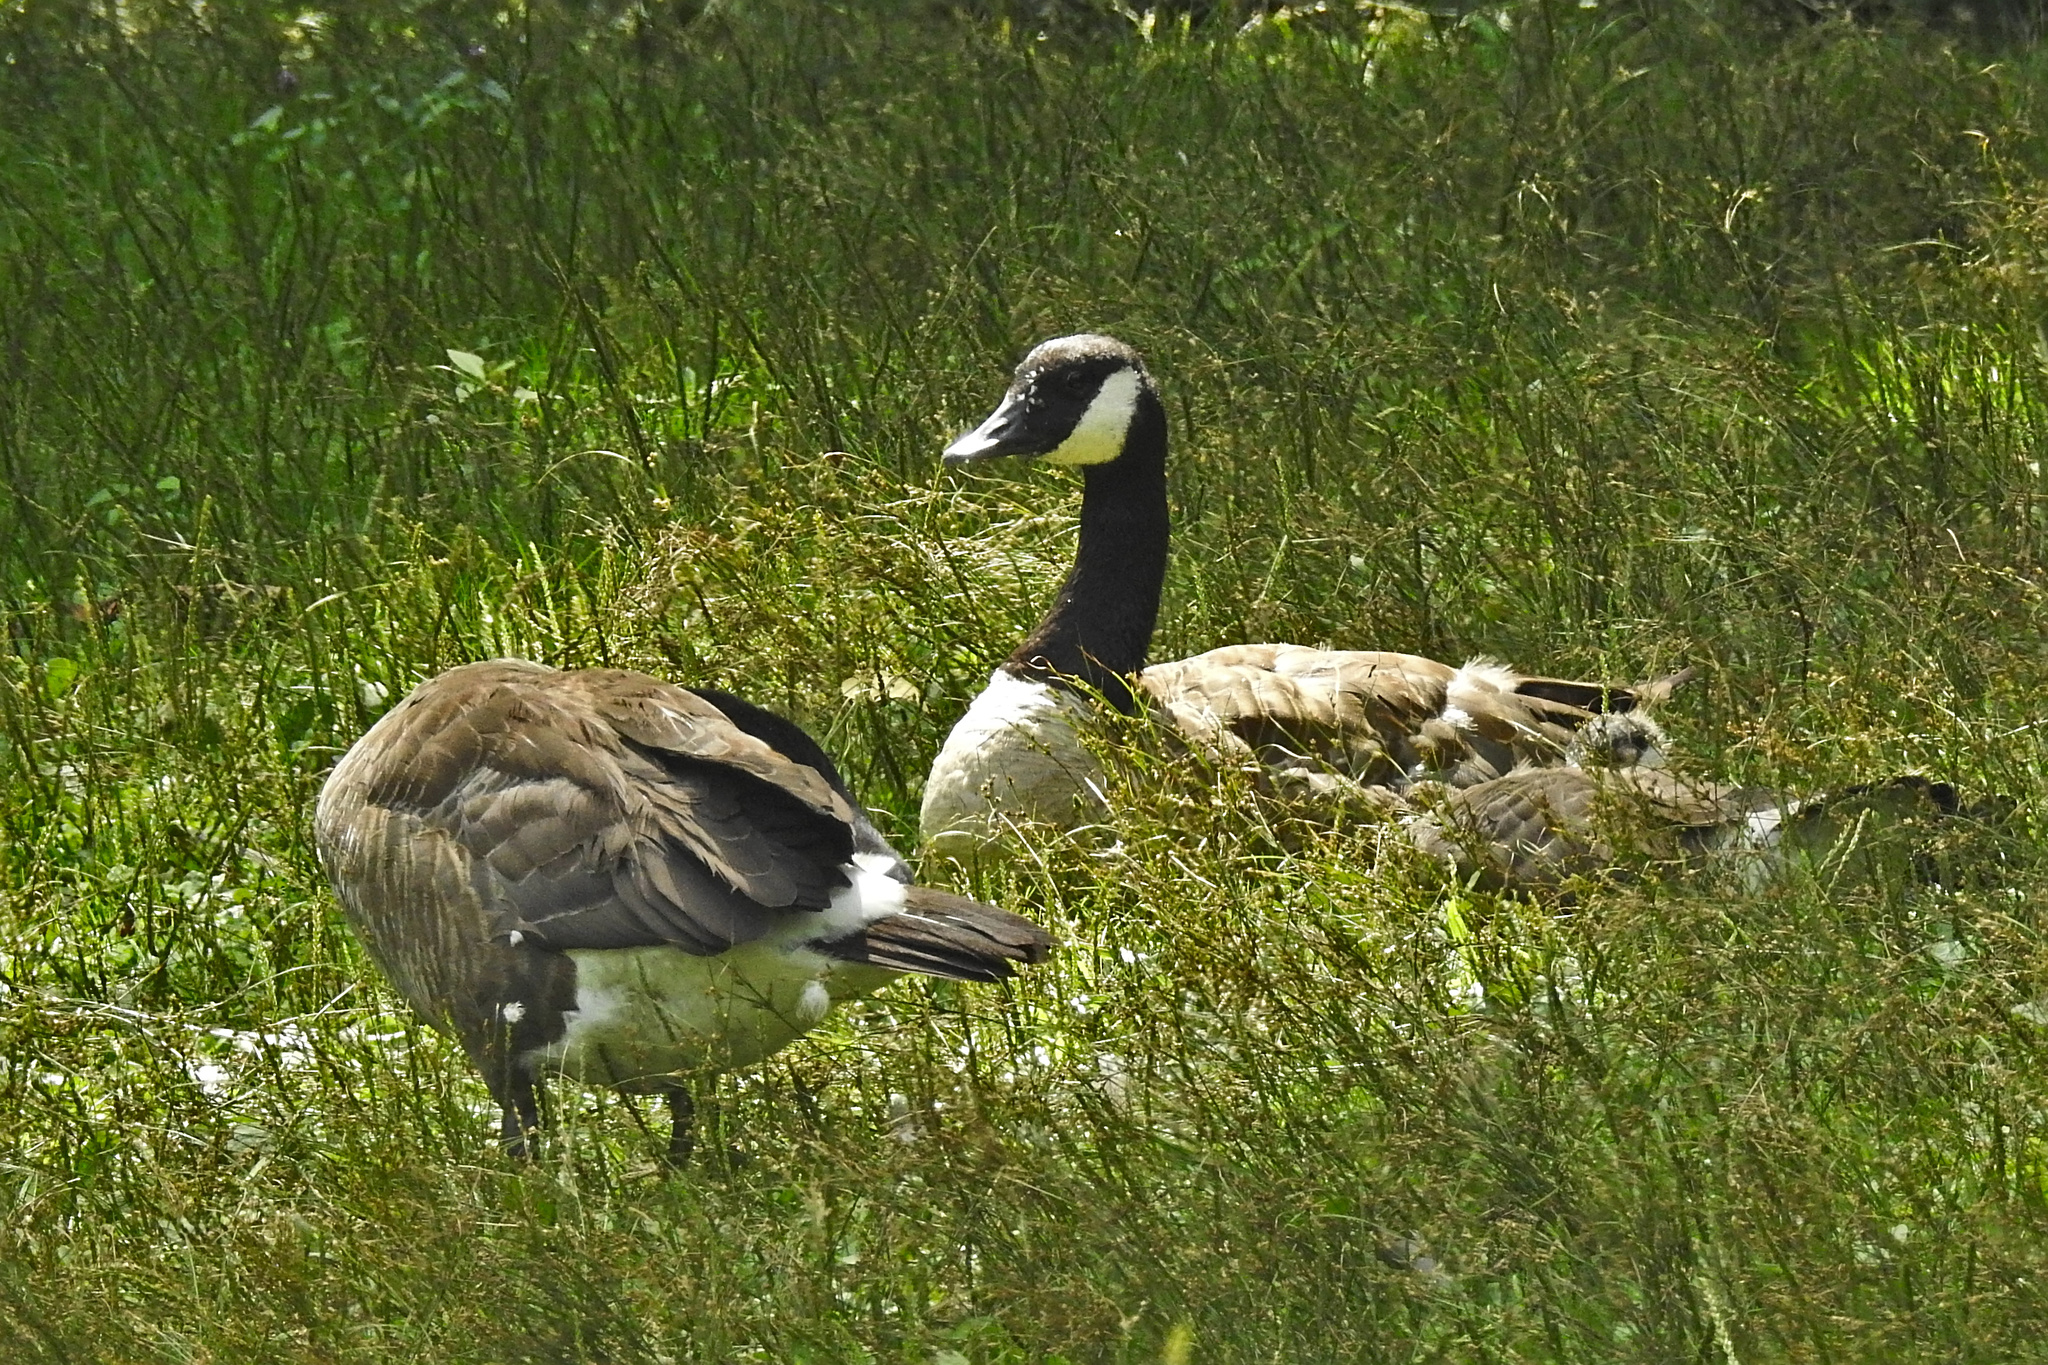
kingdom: Animalia
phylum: Chordata
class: Aves
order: Anseriformes
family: Anatidae
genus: Branta
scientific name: Branta canadensis
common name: Canada goose
